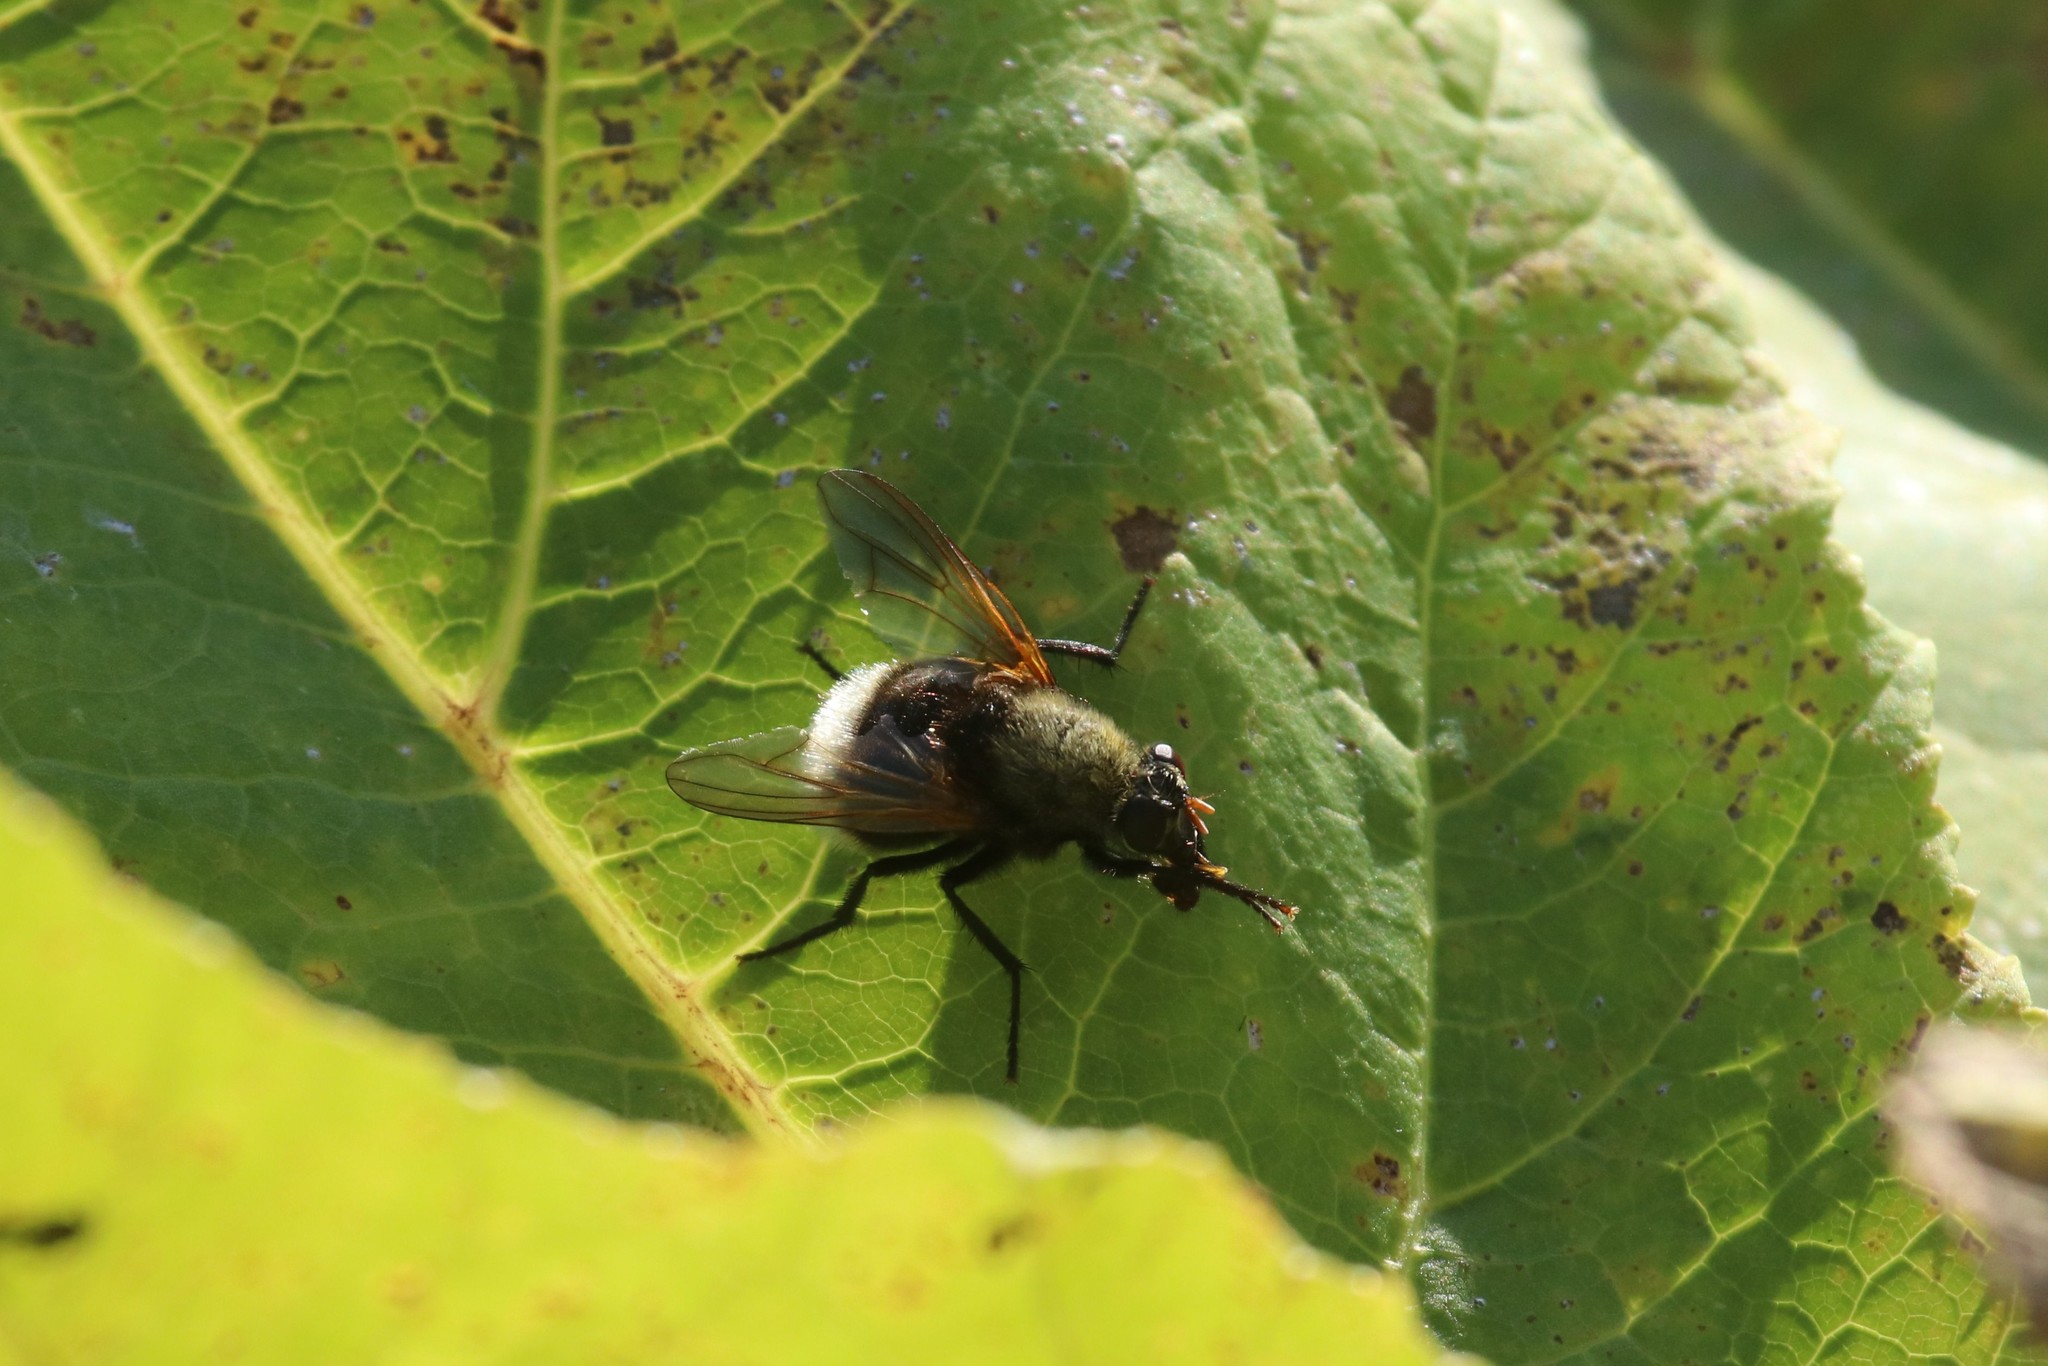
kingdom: Animalia
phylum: Arthropoda
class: Insecta
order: Diptera
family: Muscidae
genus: Mesembrina
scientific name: Mesembrina mystacea
